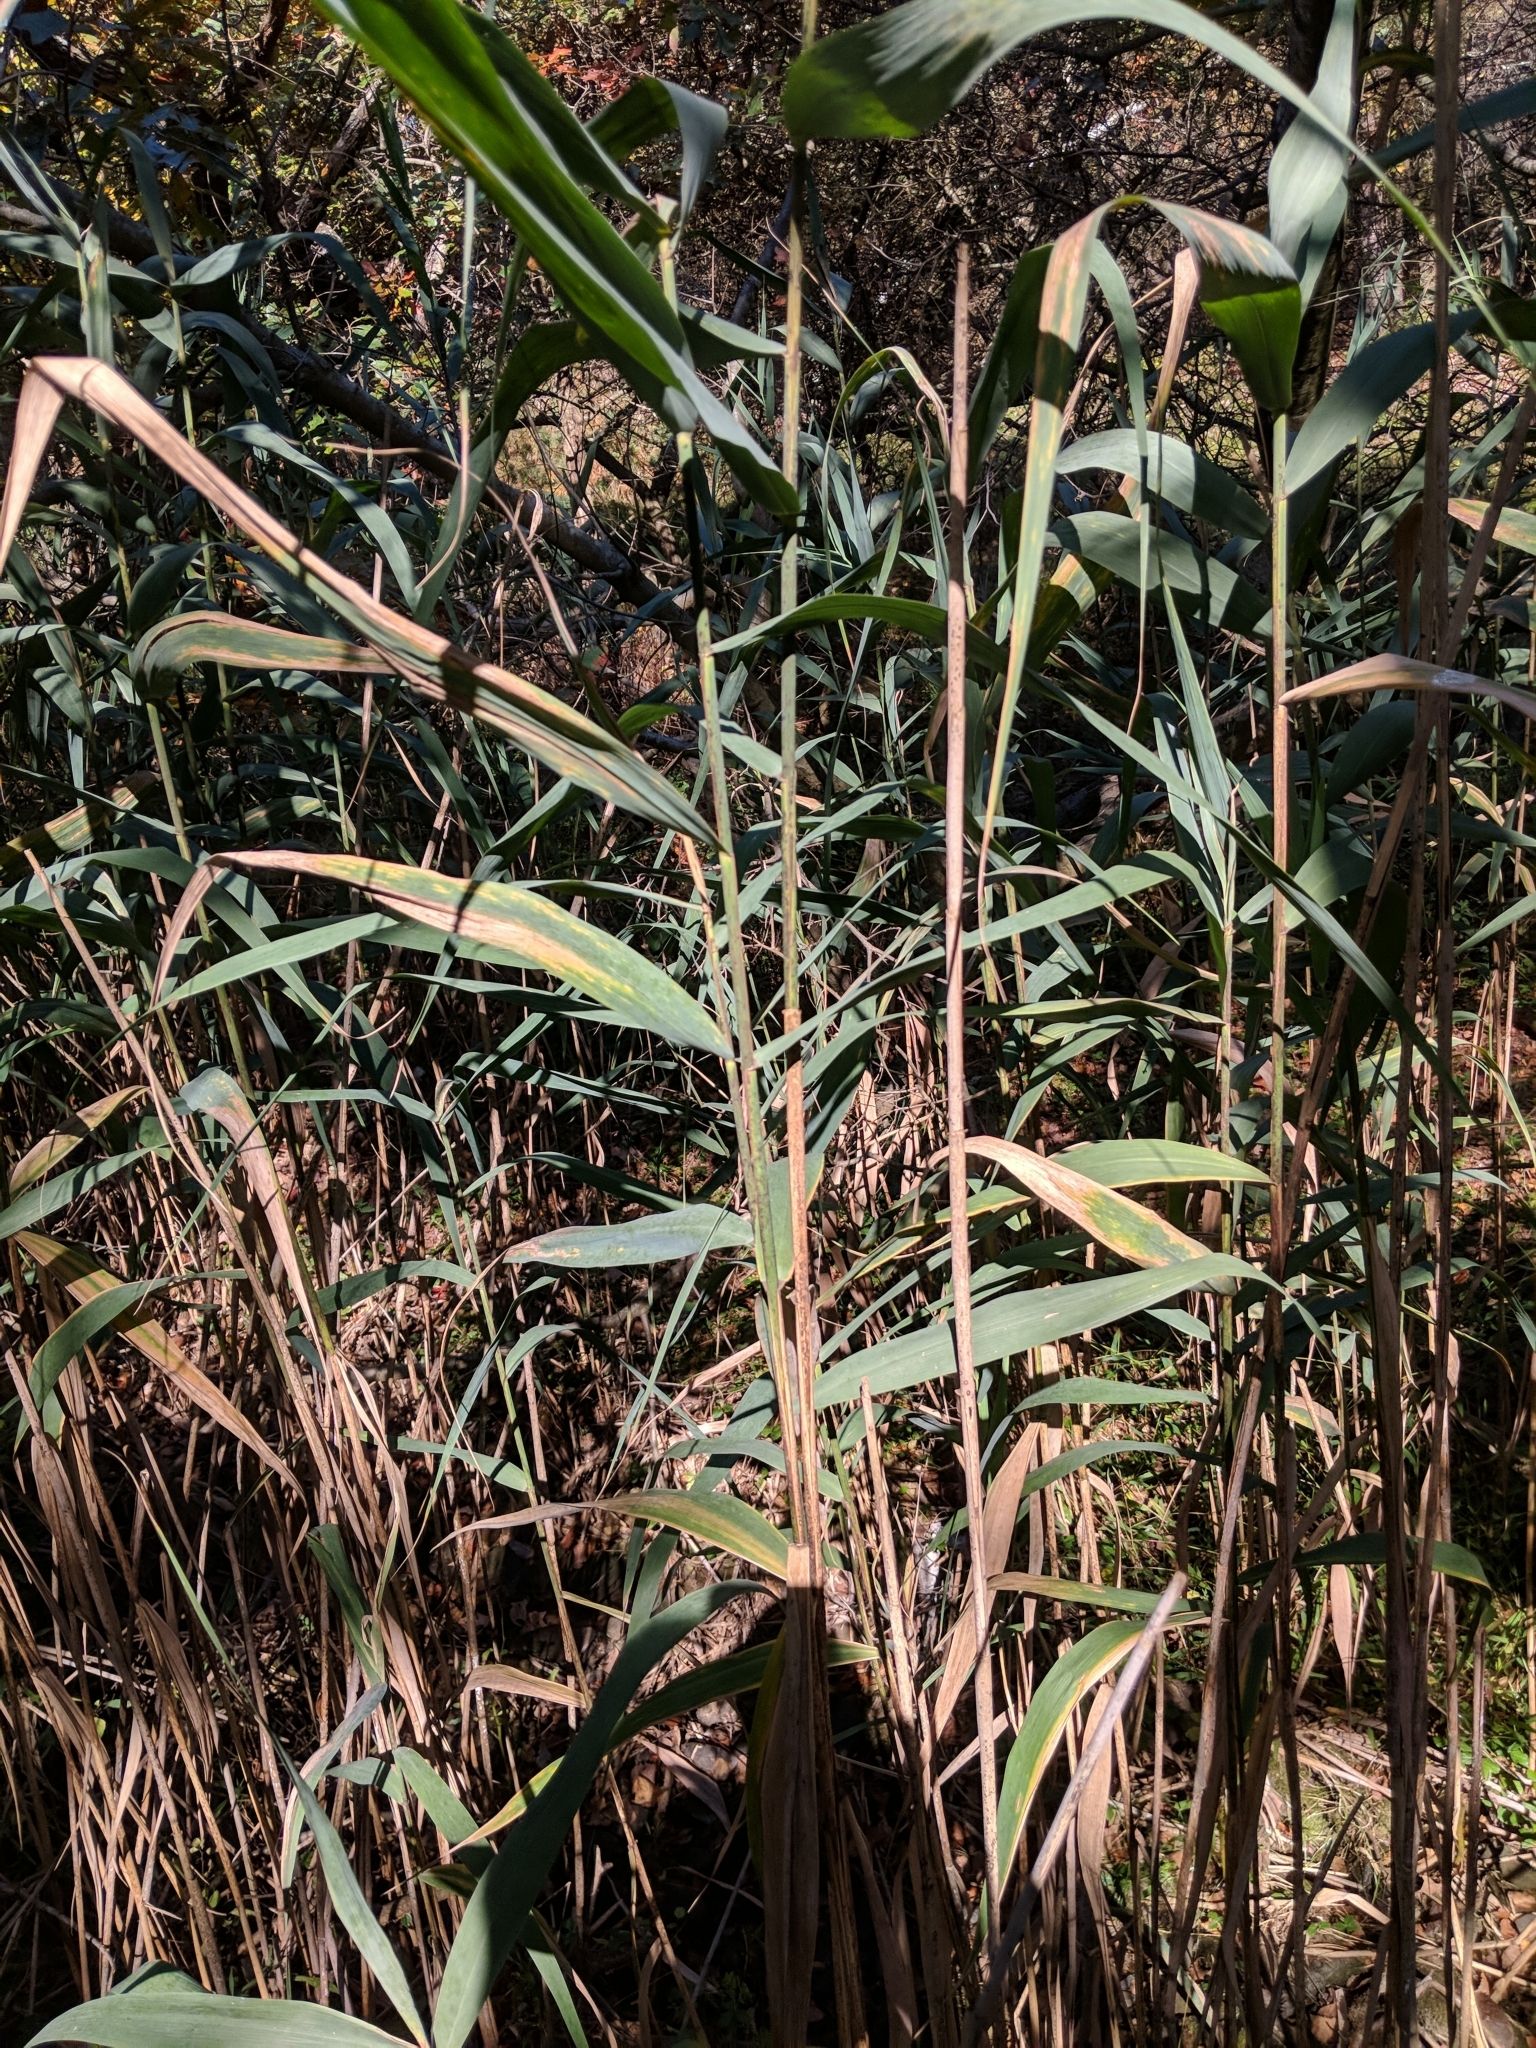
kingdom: Plantae
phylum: Tracheophyta
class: Liliopsida
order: Poales
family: Poaceae
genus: Phragmites
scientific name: Phragmites australis
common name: Common reed
